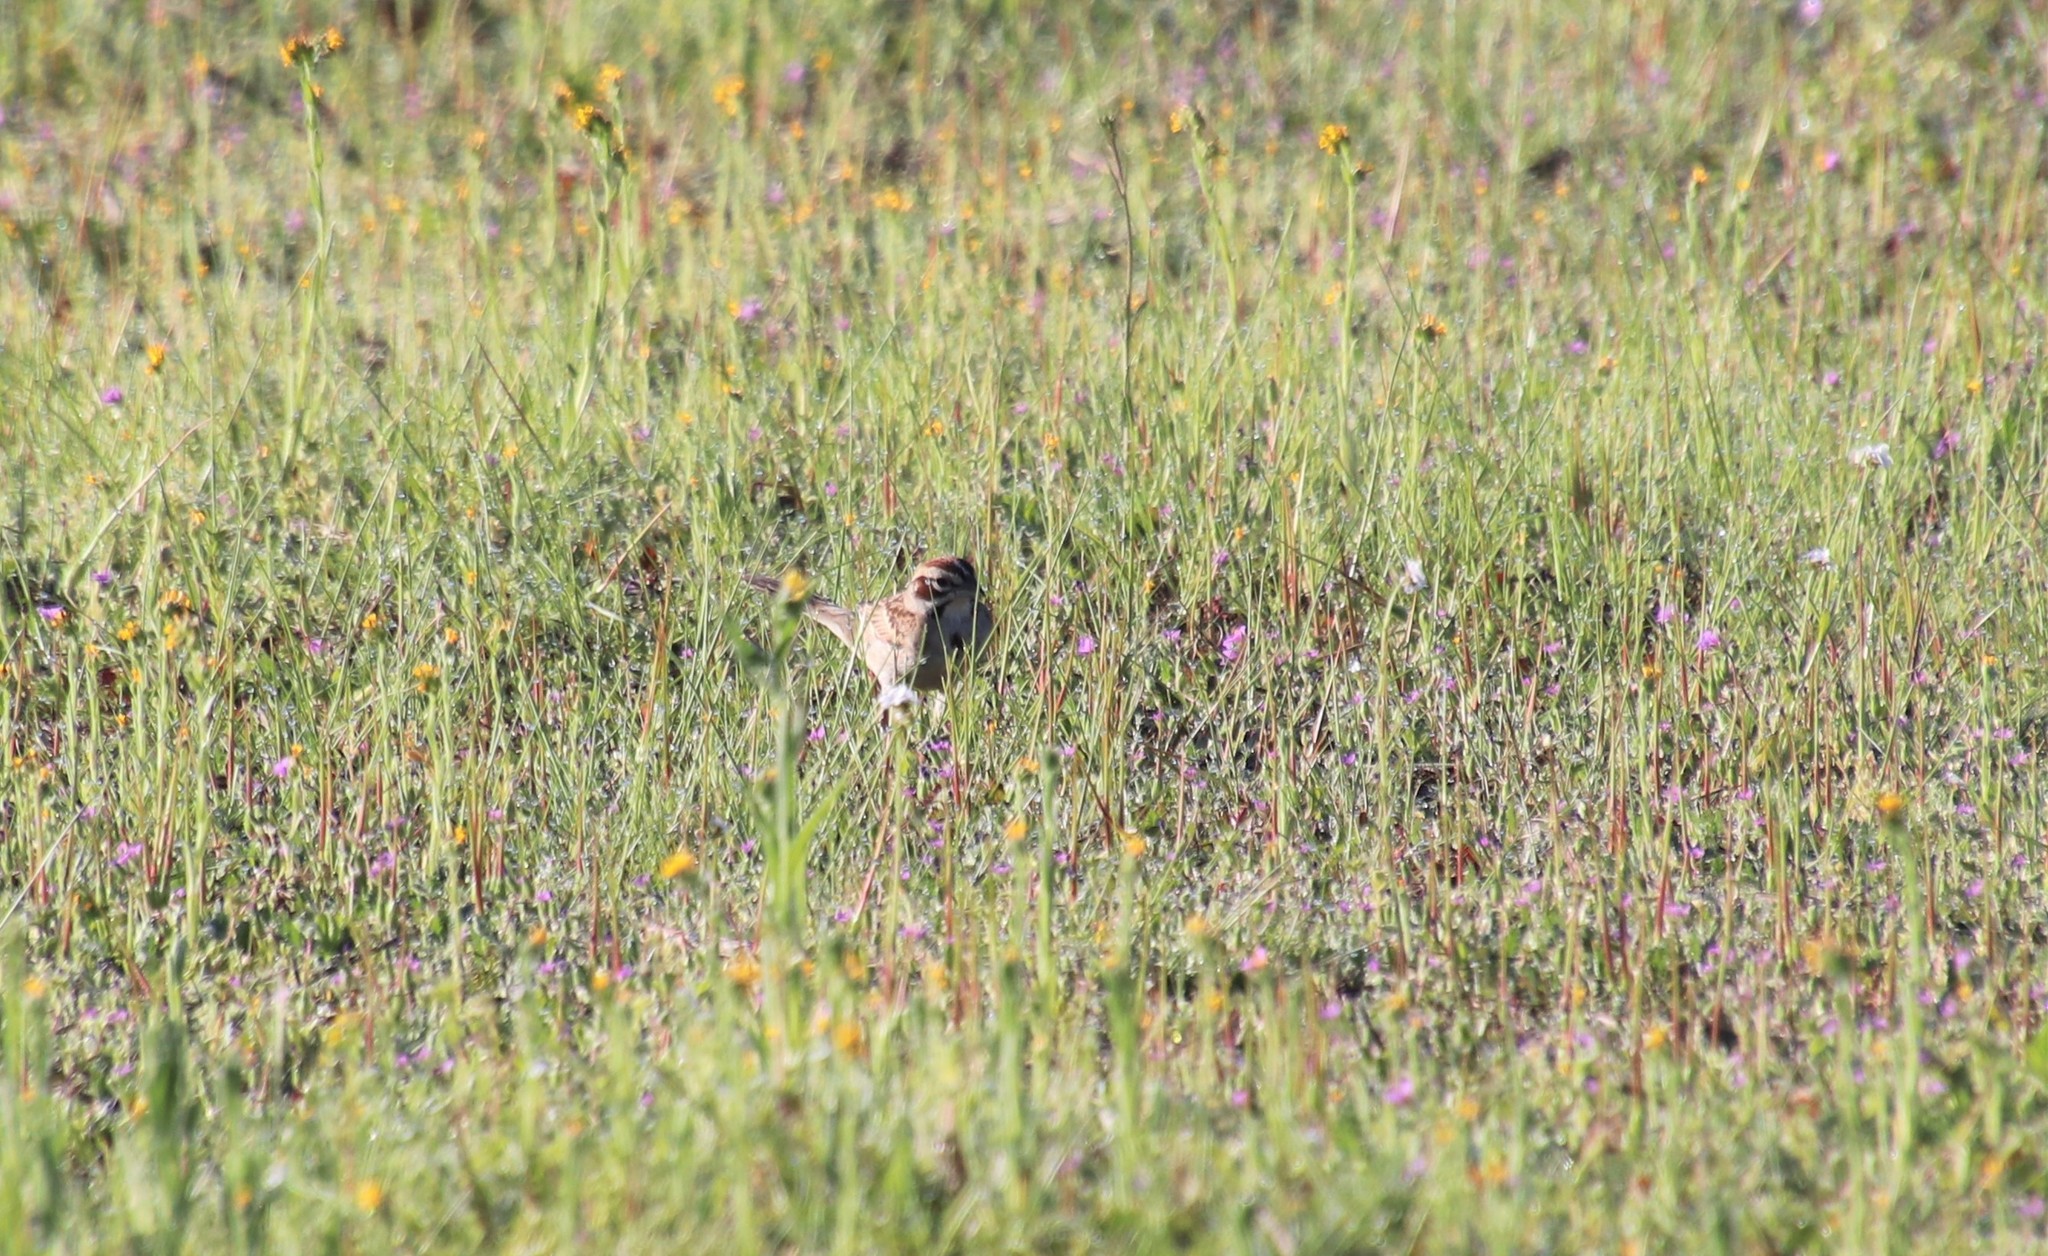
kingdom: Animalia
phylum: Chordata
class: Aves
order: Passeriformes
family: Passerellidae
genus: Chondestes
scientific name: Chondestes grammacus
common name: Lark sparrow
